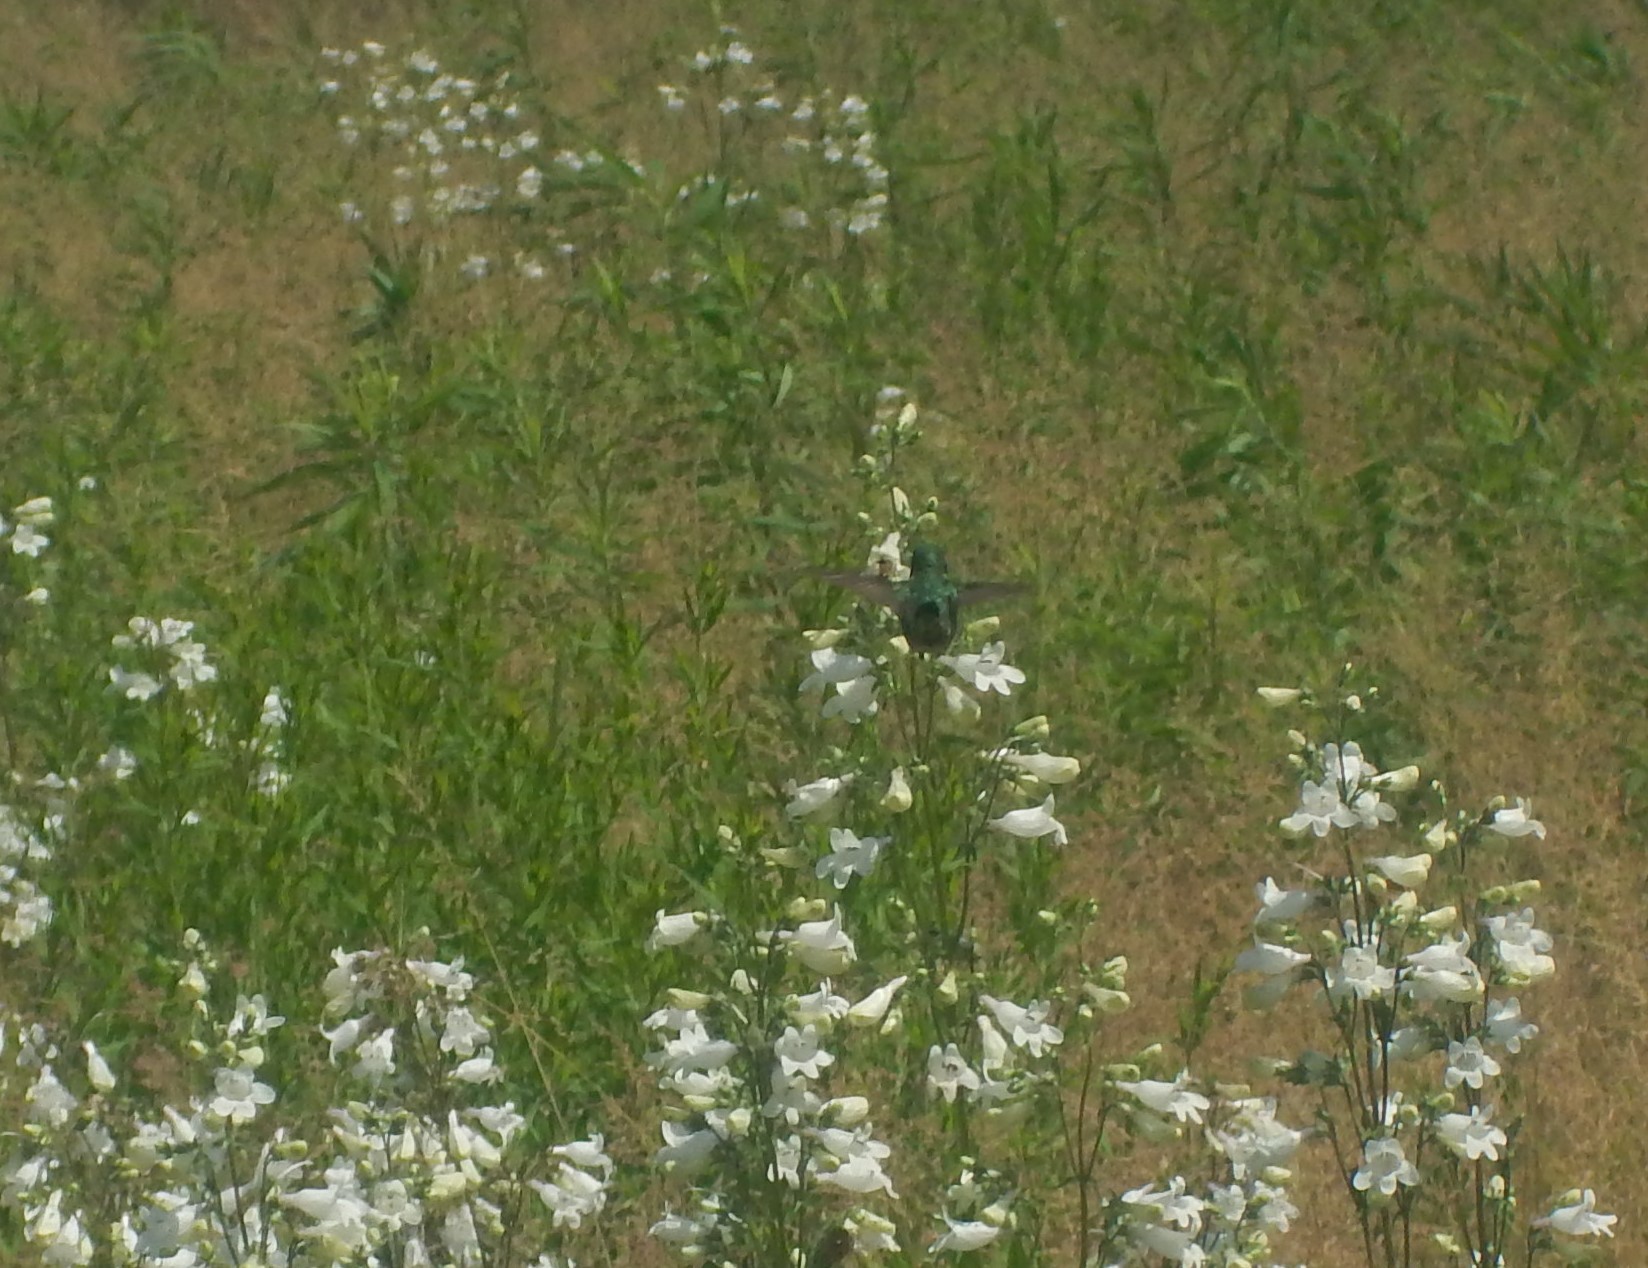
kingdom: Animalia
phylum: Chordata
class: Aves
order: Apodiformes
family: Trochilidae
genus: Archilochus
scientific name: Archilochus colubris
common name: Ruby-throated hummingbird
